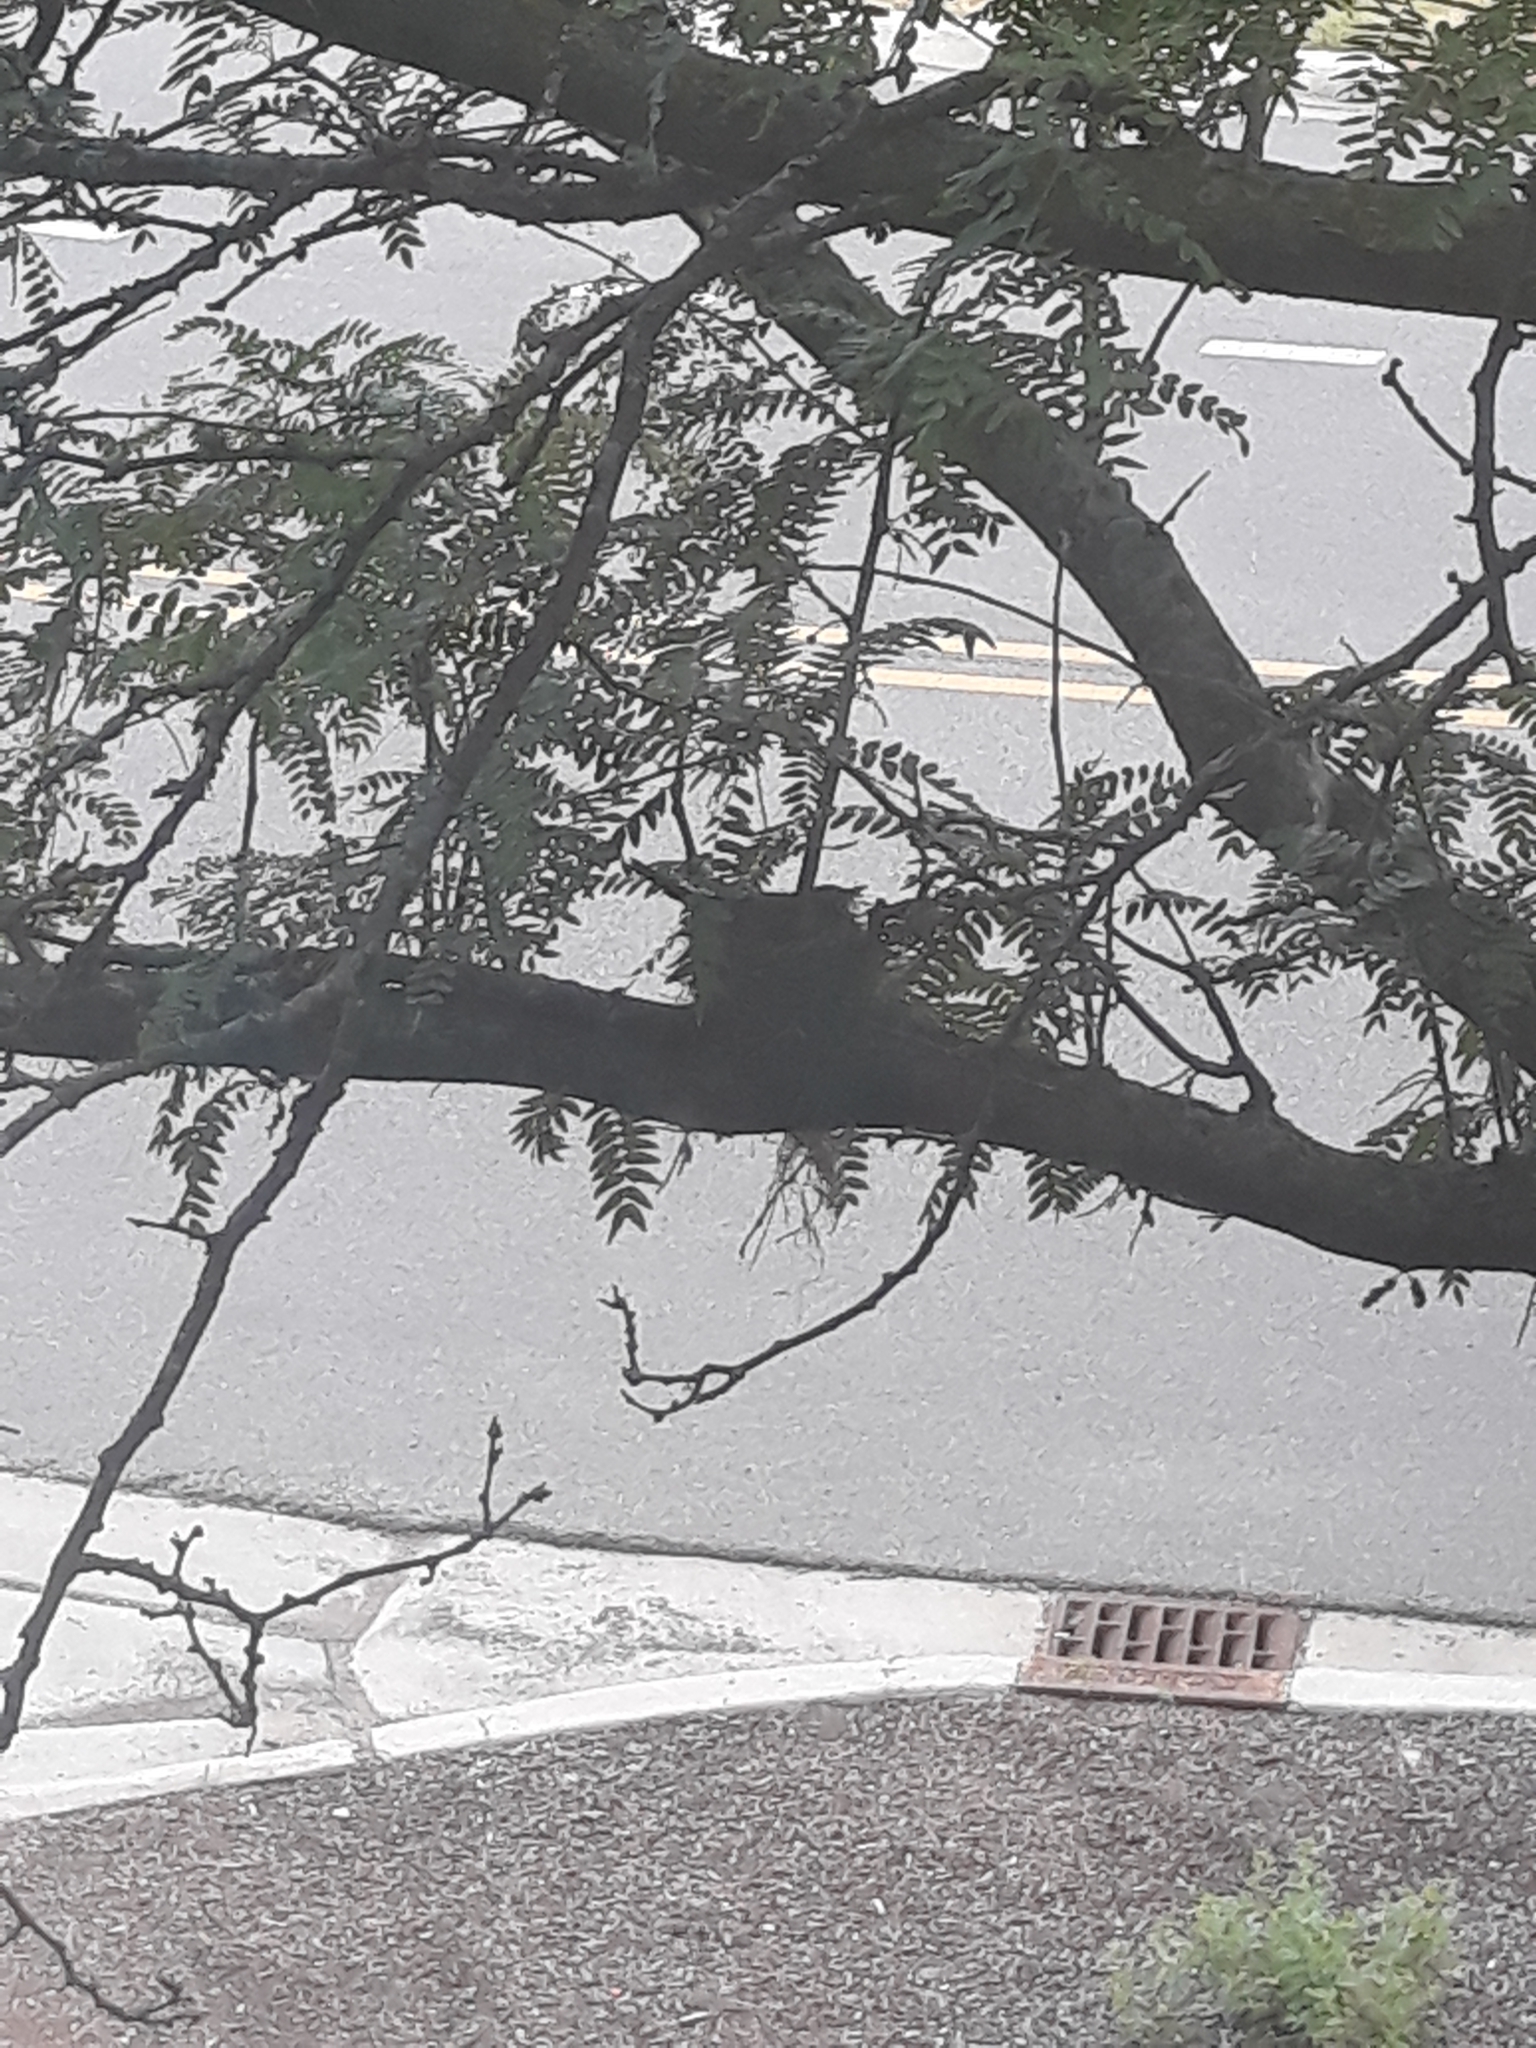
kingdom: Animalia
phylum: Chordata
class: Aves
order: Passeriformes
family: Turdidae
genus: Turdus
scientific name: Turdus migratorius
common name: American robin
